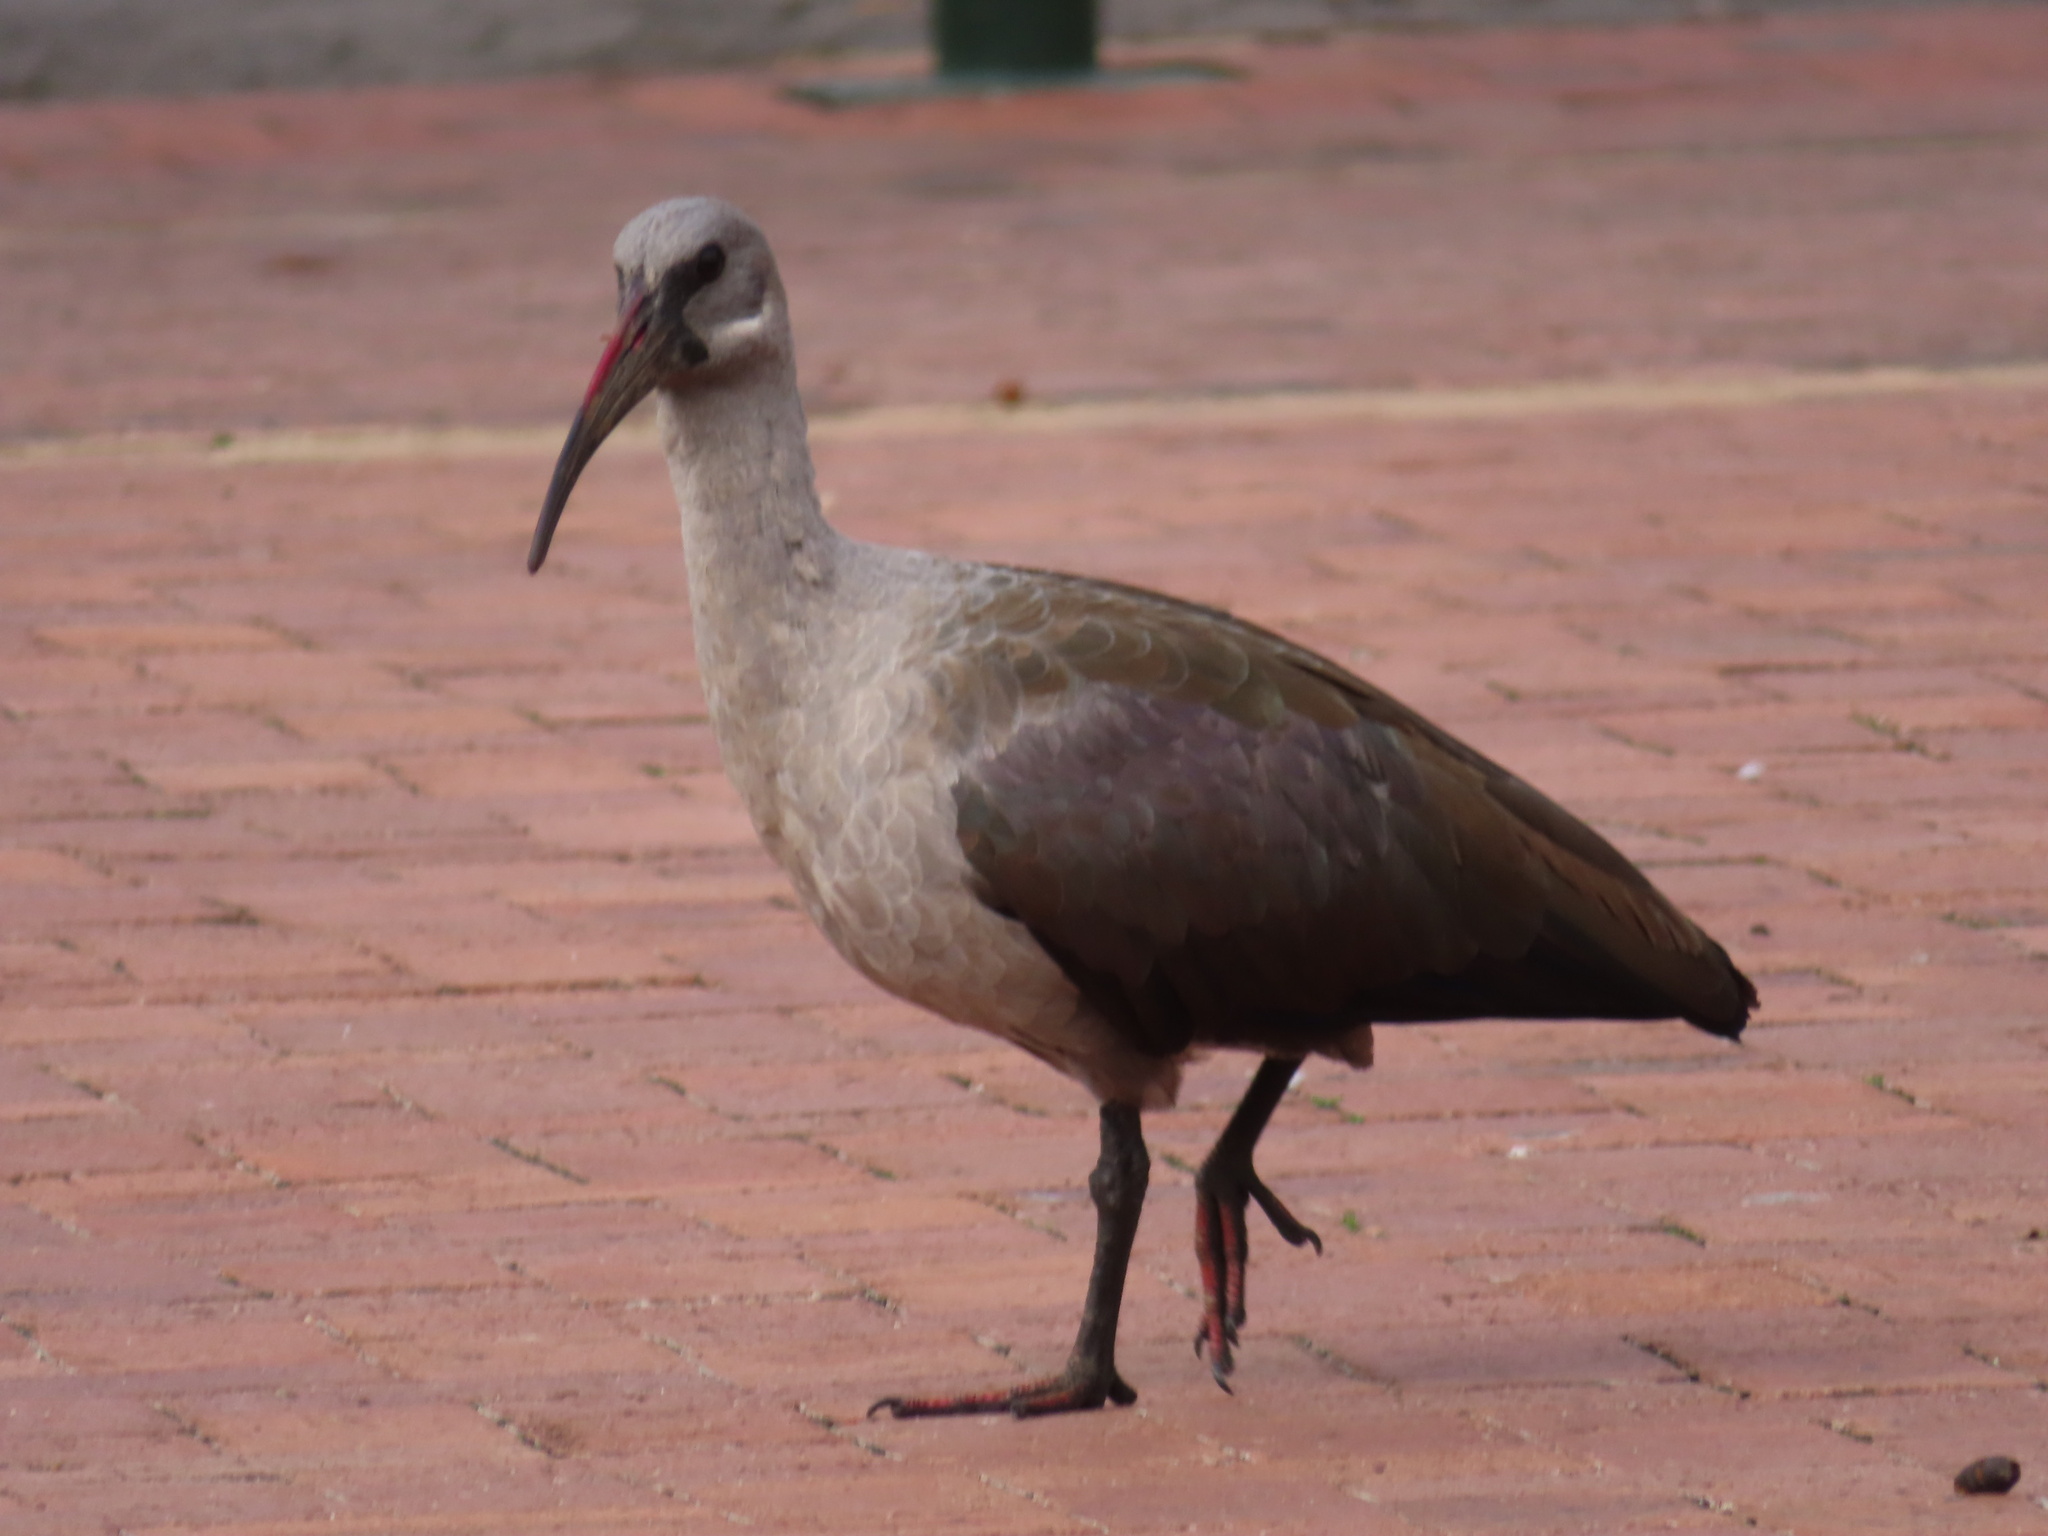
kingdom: Animalia
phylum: Chordata
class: Aves
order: Pelecaniformes
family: Threskiornithidae
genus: Bostrychia
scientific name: Bostrychia hagedash
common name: Hadada ibis
